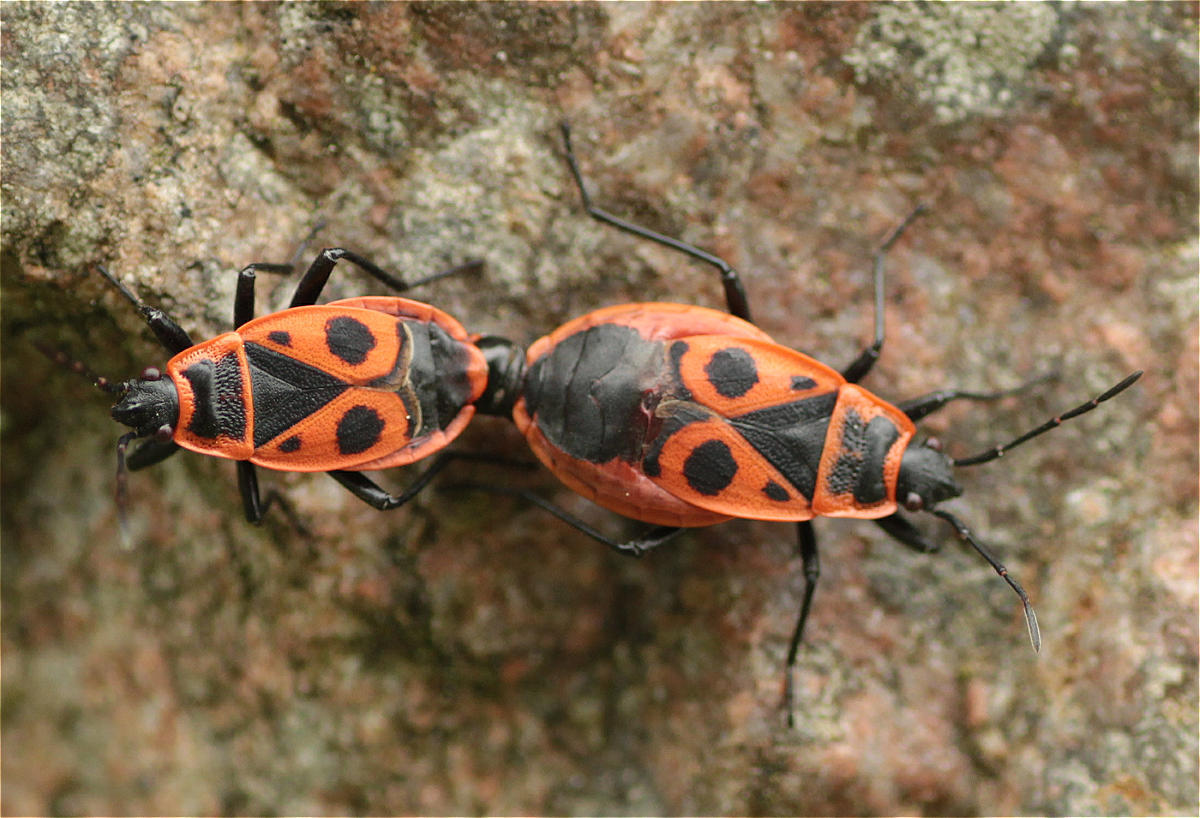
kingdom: Animalia
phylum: Arthropoda
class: Insecta
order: Hemiptera
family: Pyrrhocoridae
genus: Pyrrhocoris
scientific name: Pyrrhocoris apterus
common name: Firebug
